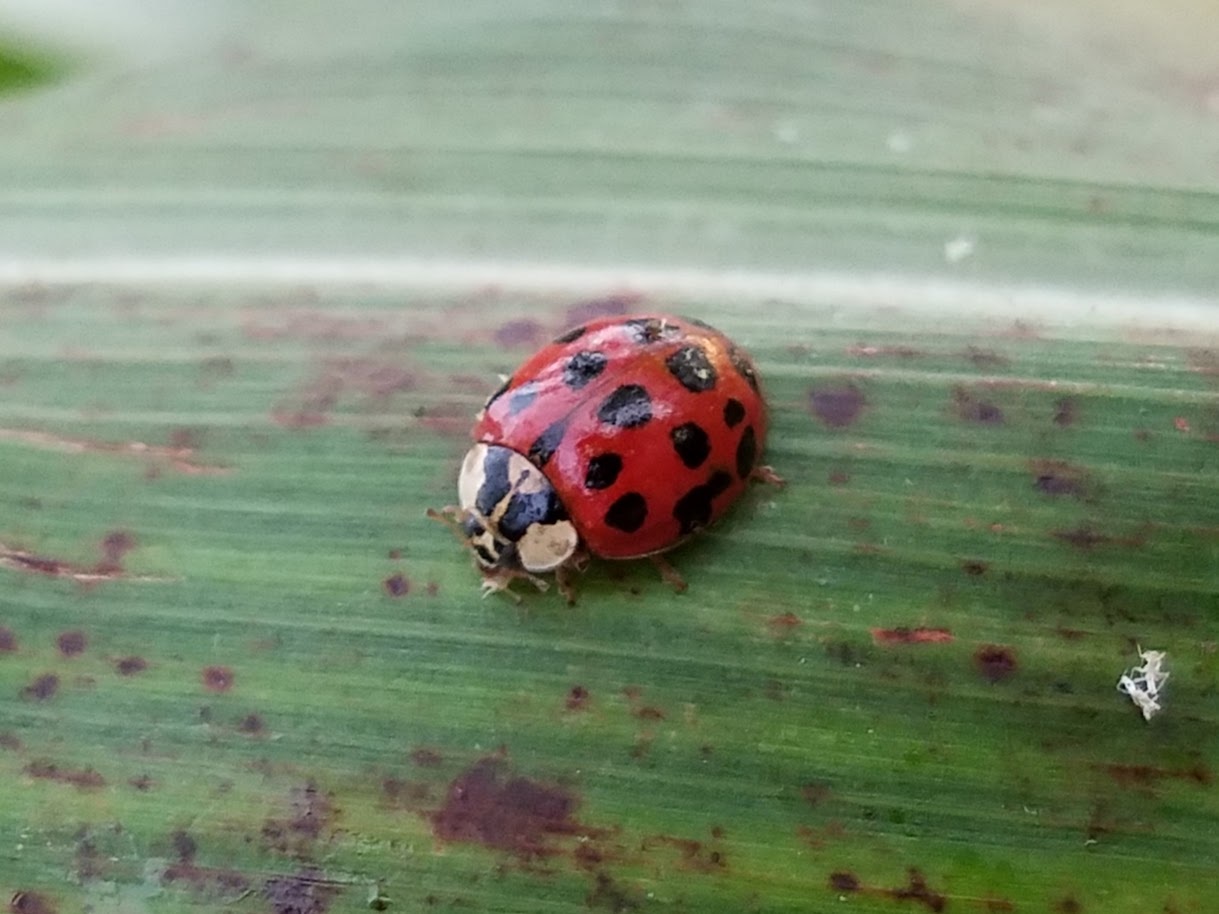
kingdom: Animalia
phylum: Arthropoda
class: Insecta
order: Coleoptera
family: Coccinellidae
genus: Harmonia
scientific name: Harmonia axyridis
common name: Harlequin ladybird
